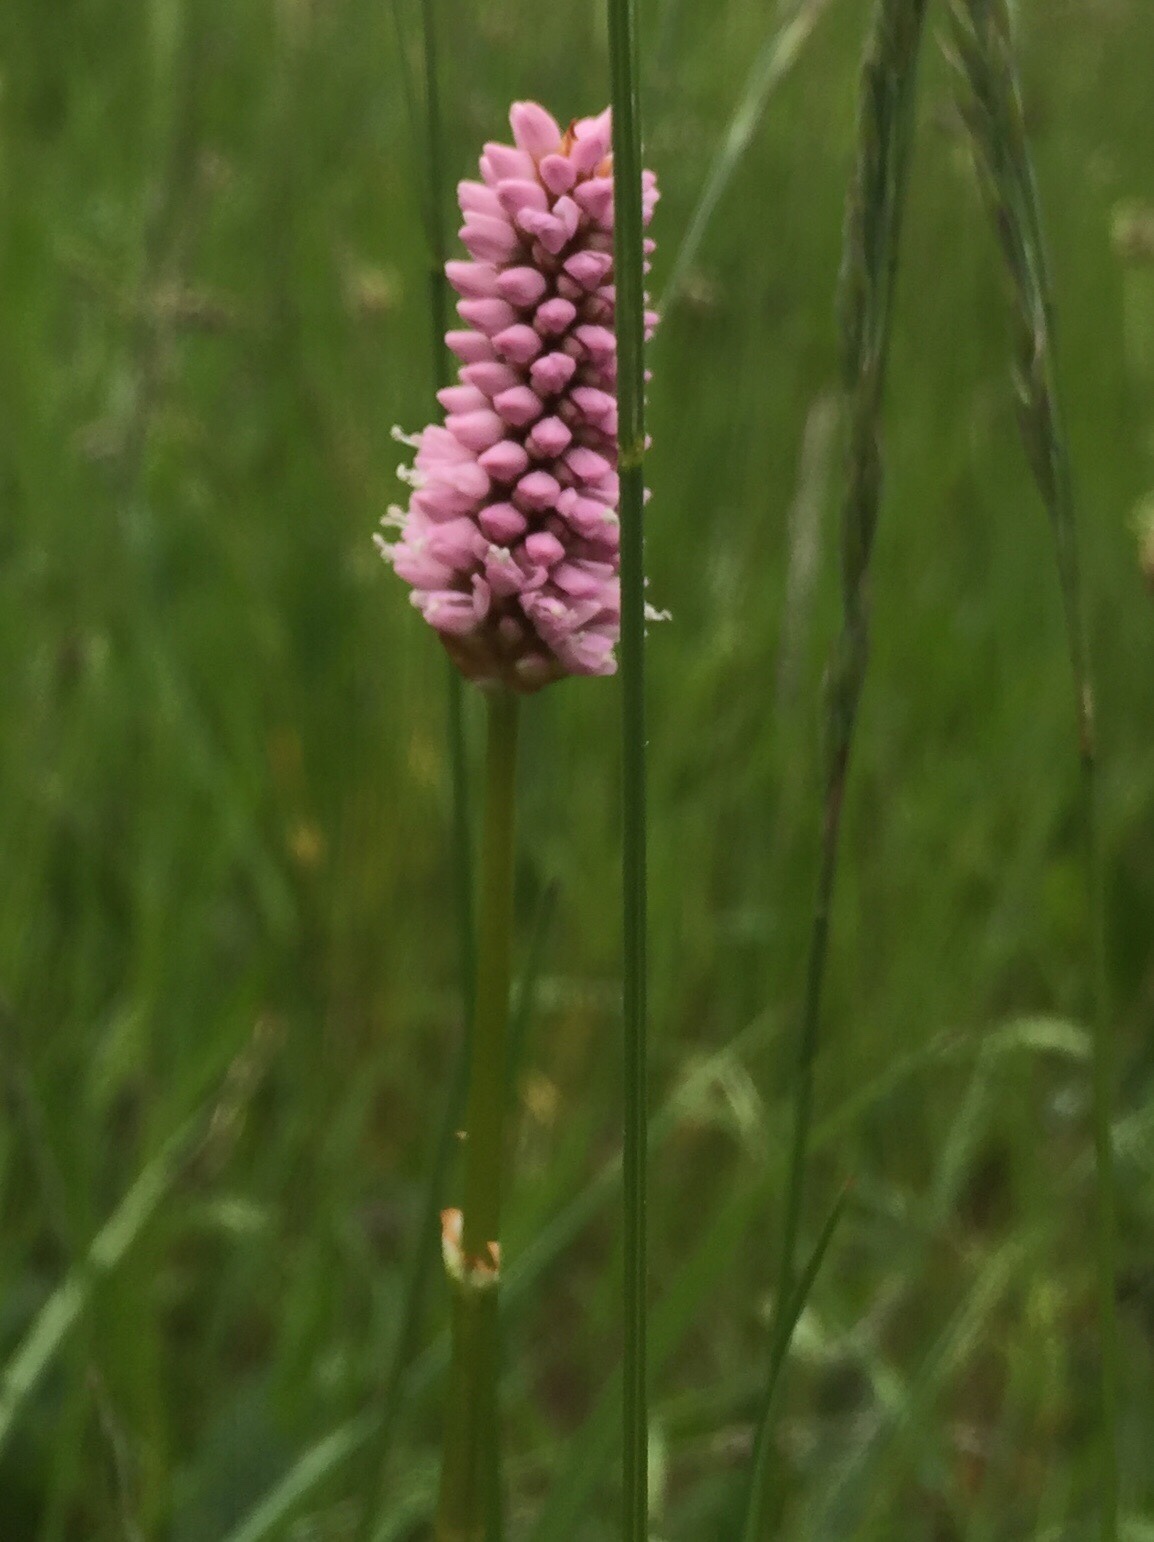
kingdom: Plantae
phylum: Tracheophyta
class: Magnoliopsida
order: Caryophyllales
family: Polygonaceae
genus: Bistorta
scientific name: Bistorta officinalis
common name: Common bistort
